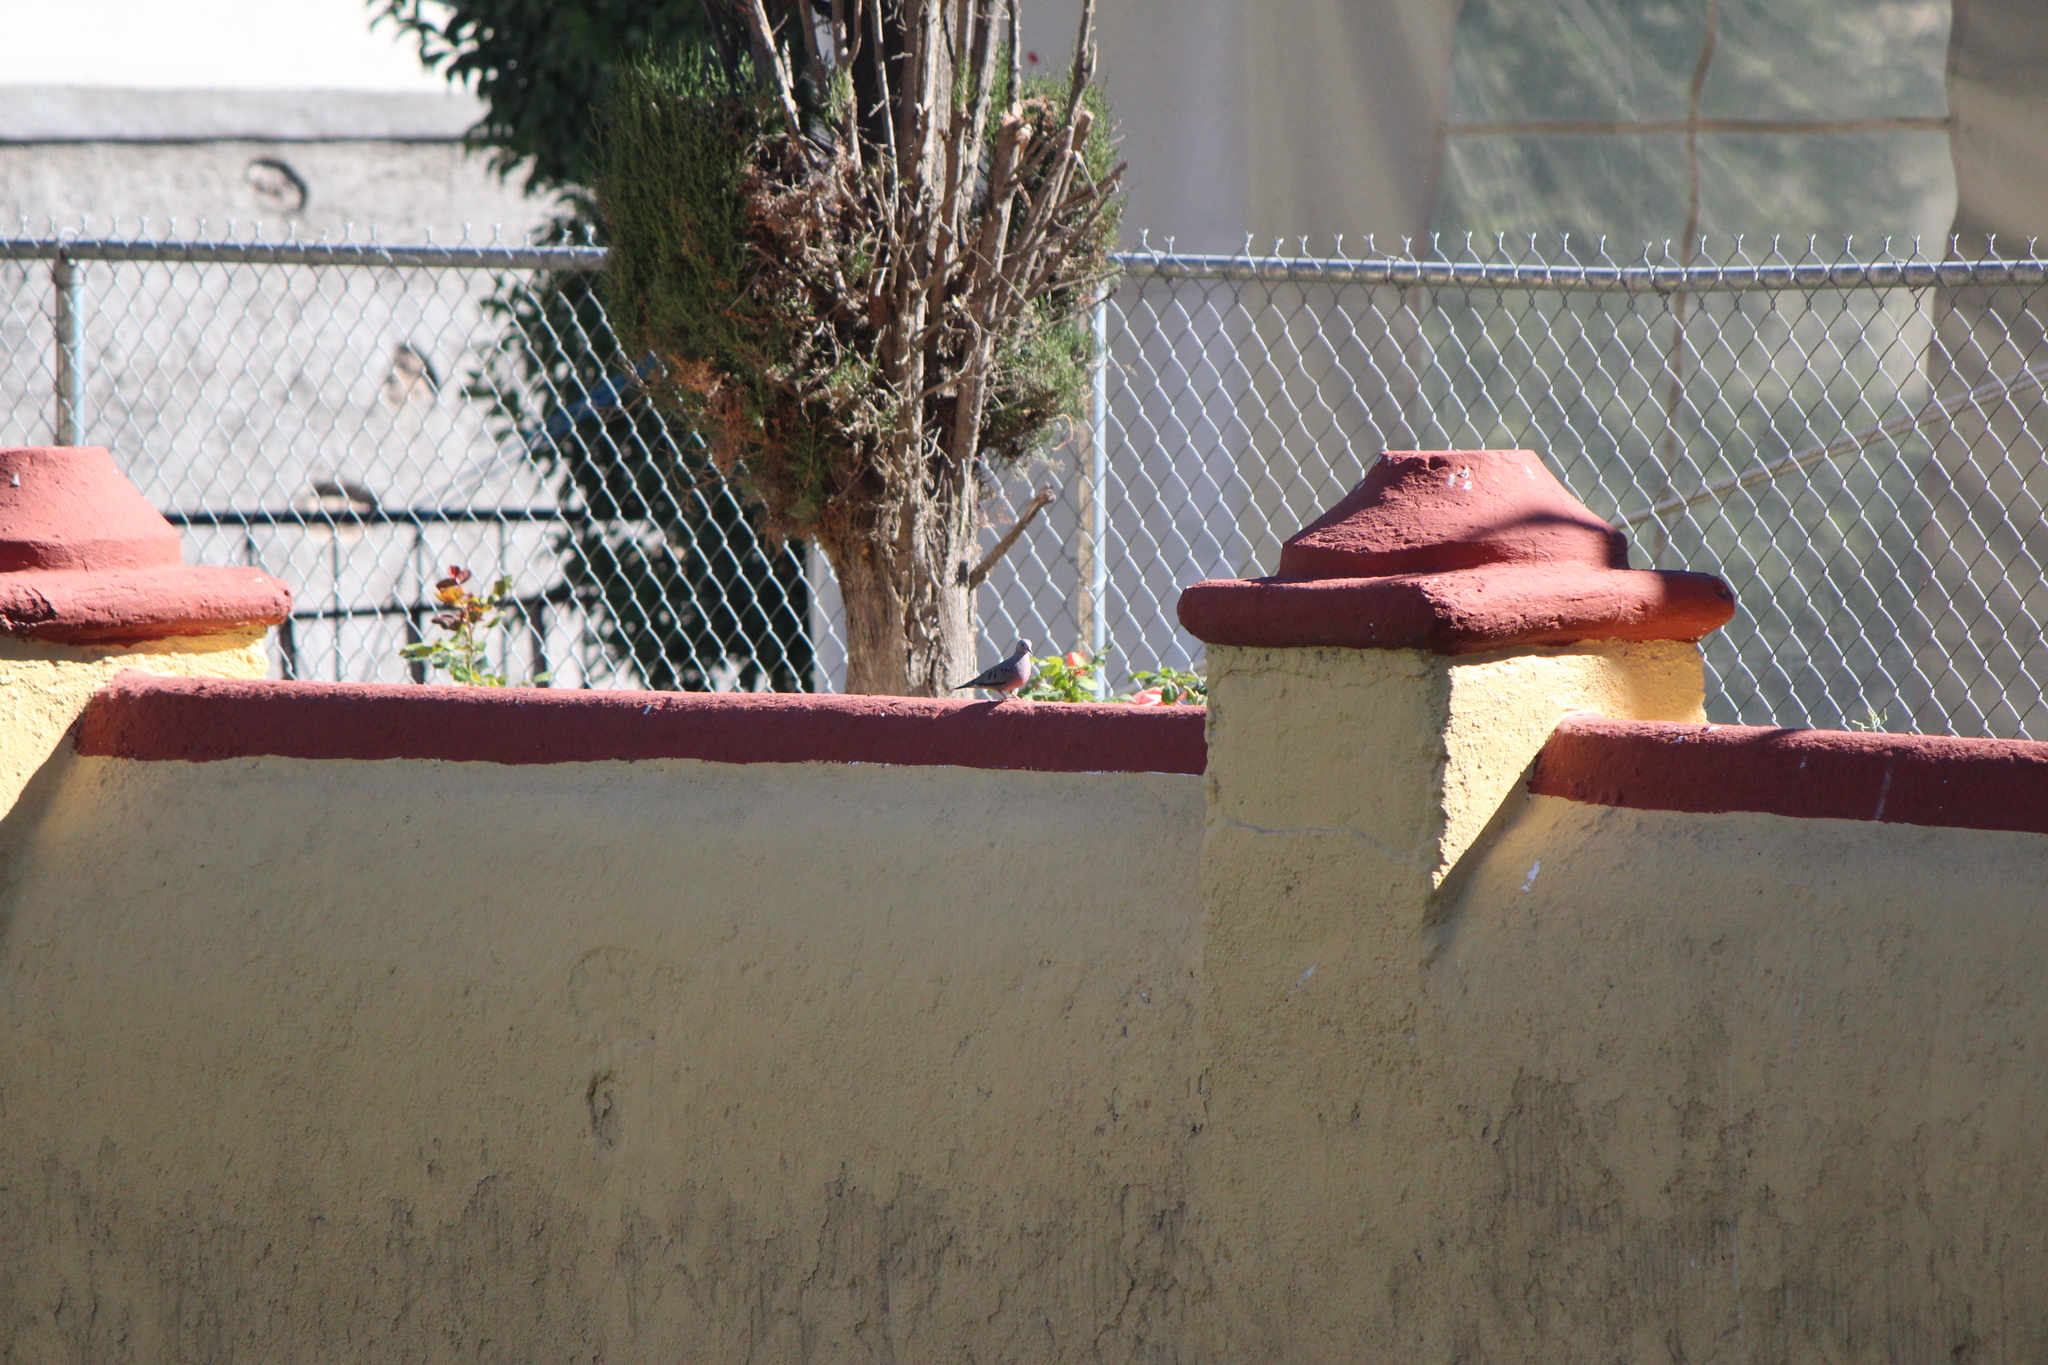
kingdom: Animalia
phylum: Chordata
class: Aves
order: Columbiformes
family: Columbidae
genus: Columbina
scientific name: Columbina passerina
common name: Common ground-dove
